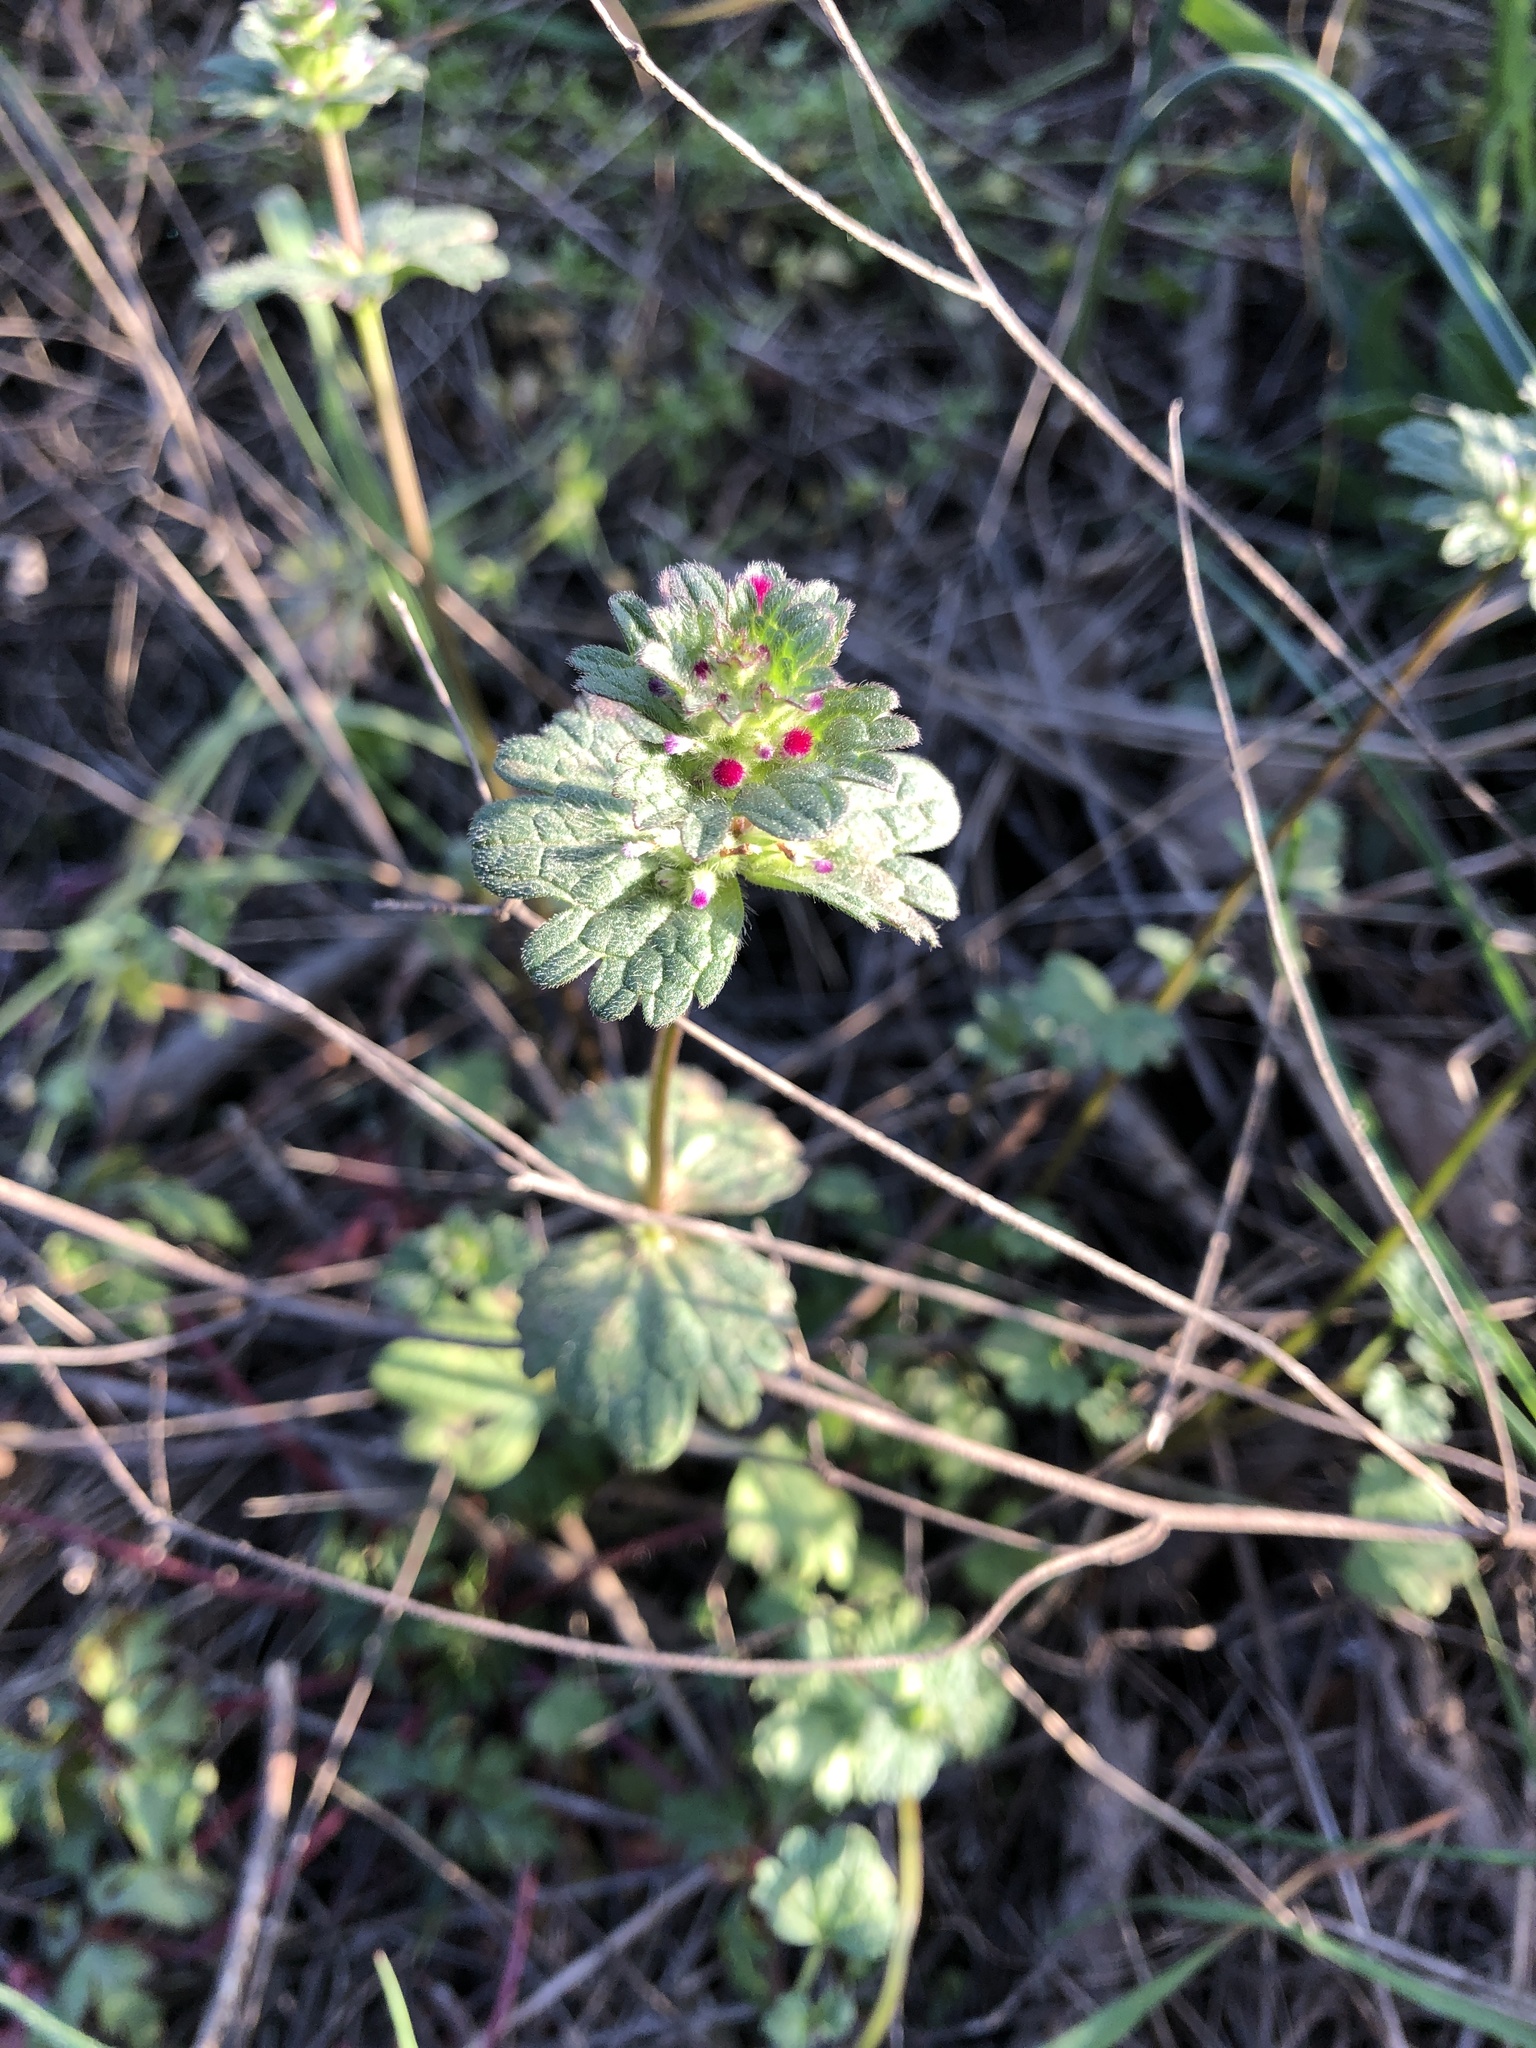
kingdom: Plantae
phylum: Tracheophyta
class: Magnoliopsida
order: Lamiales
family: Lamiaceae
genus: Lamium
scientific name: Lamium amplexicaule
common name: Henbit dead-nettle
